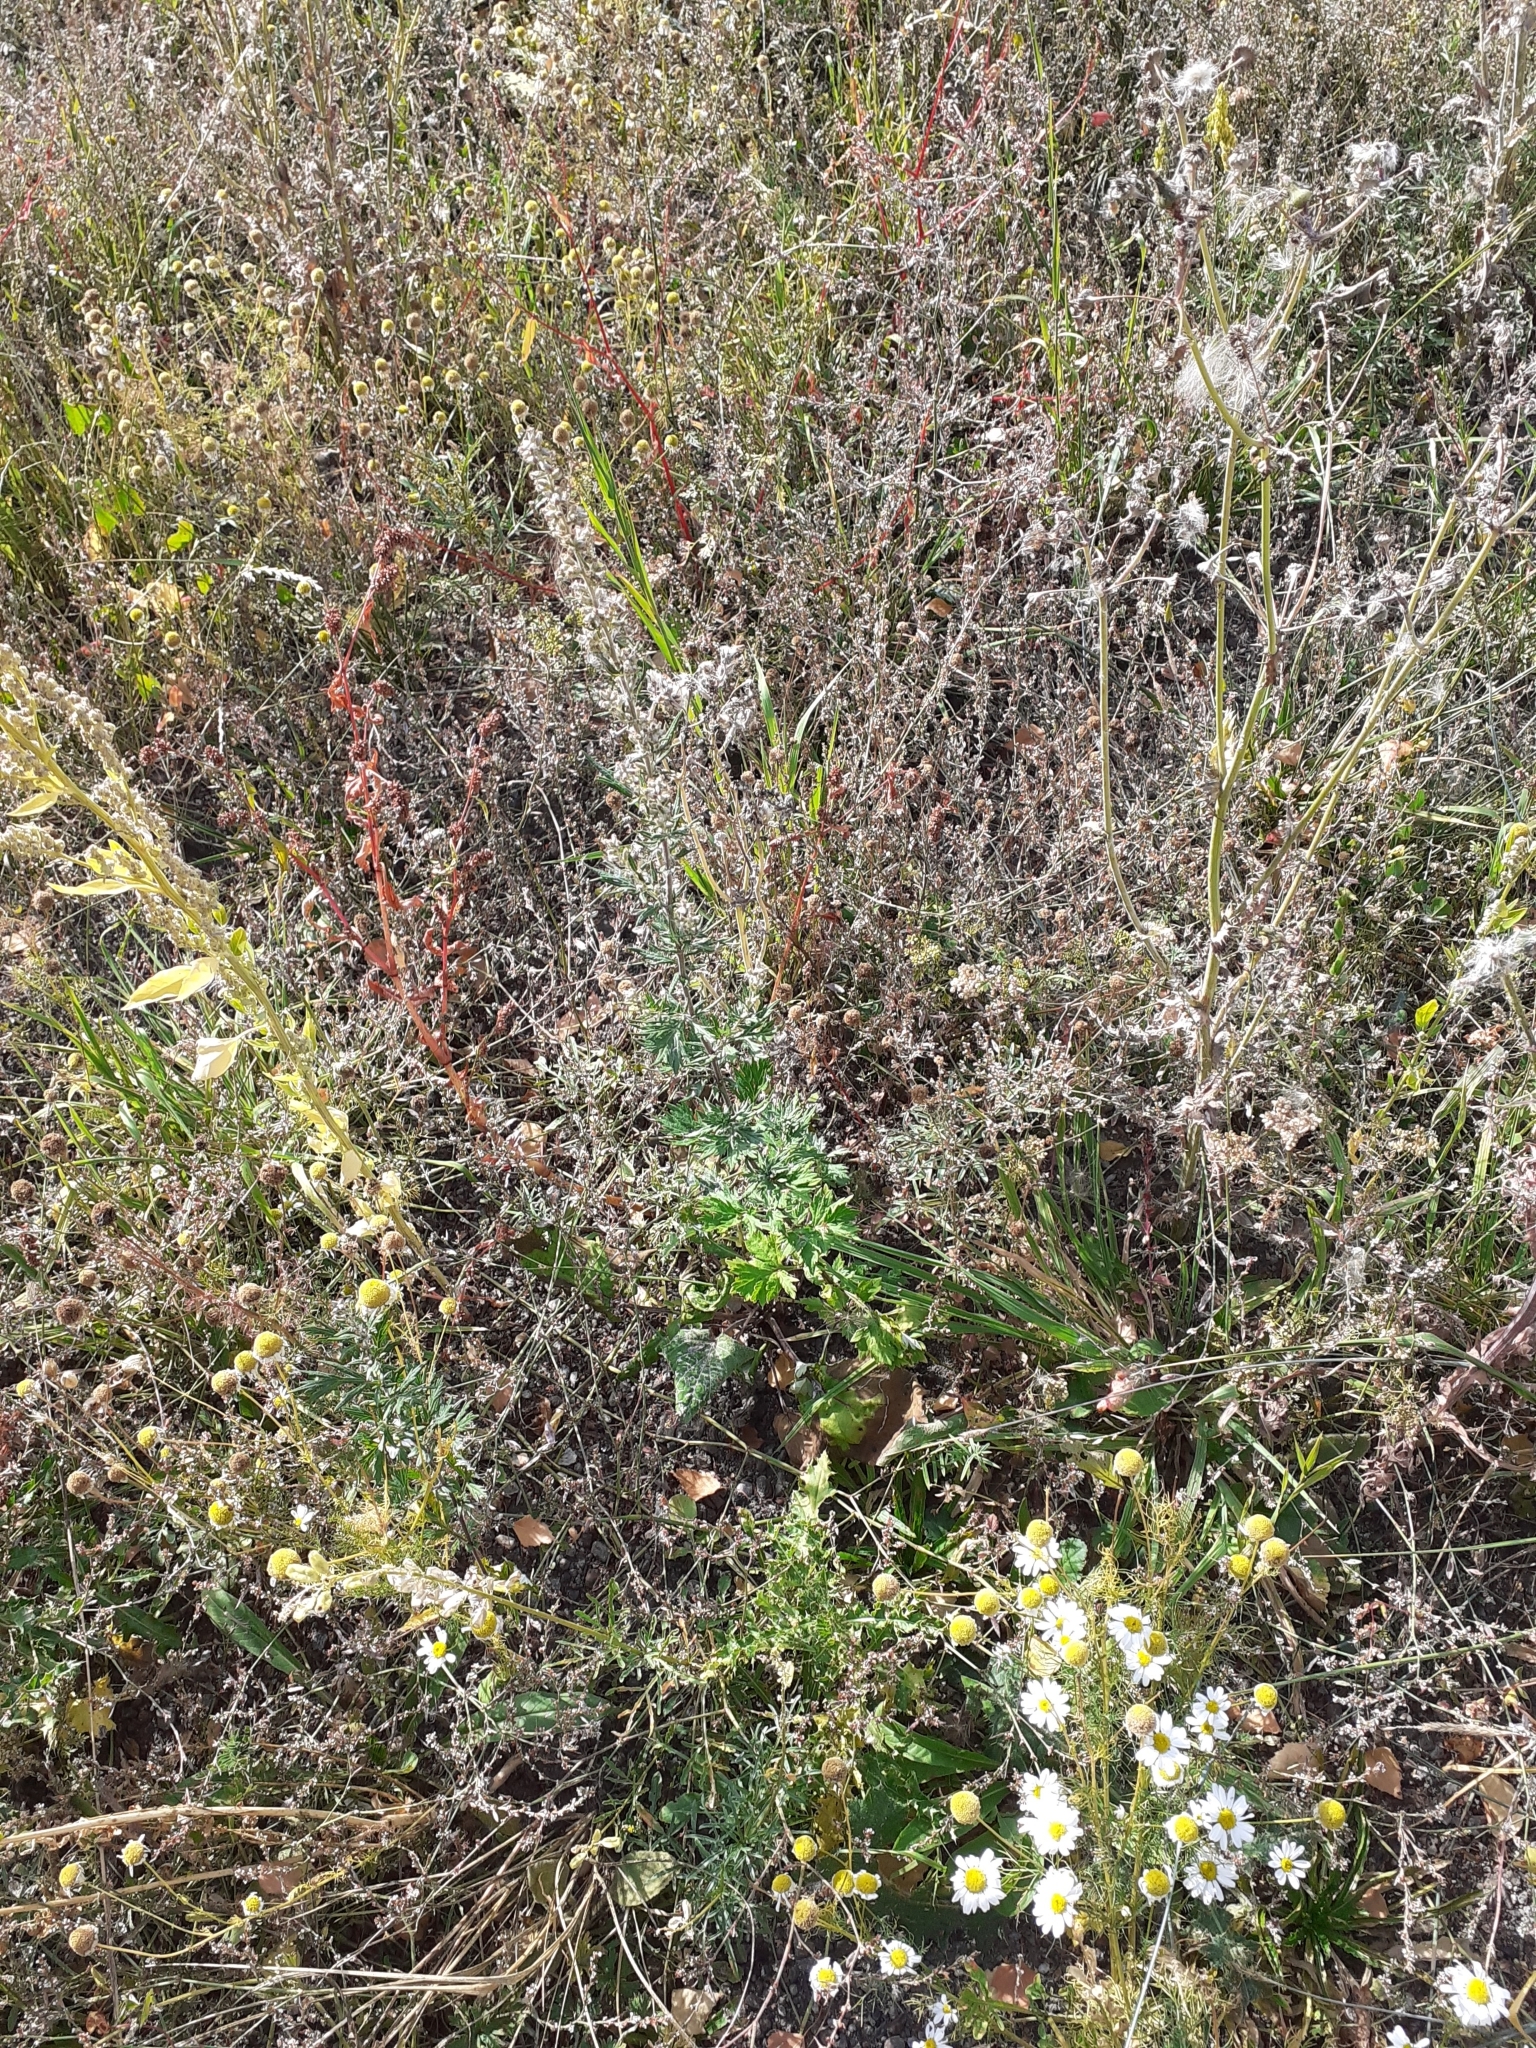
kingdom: Plantae
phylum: Tracheophyta
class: Magnoliopsida
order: Asterales
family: Asteraceae
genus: Artemisia
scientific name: Artemisia vulgaris
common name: Mugwort
